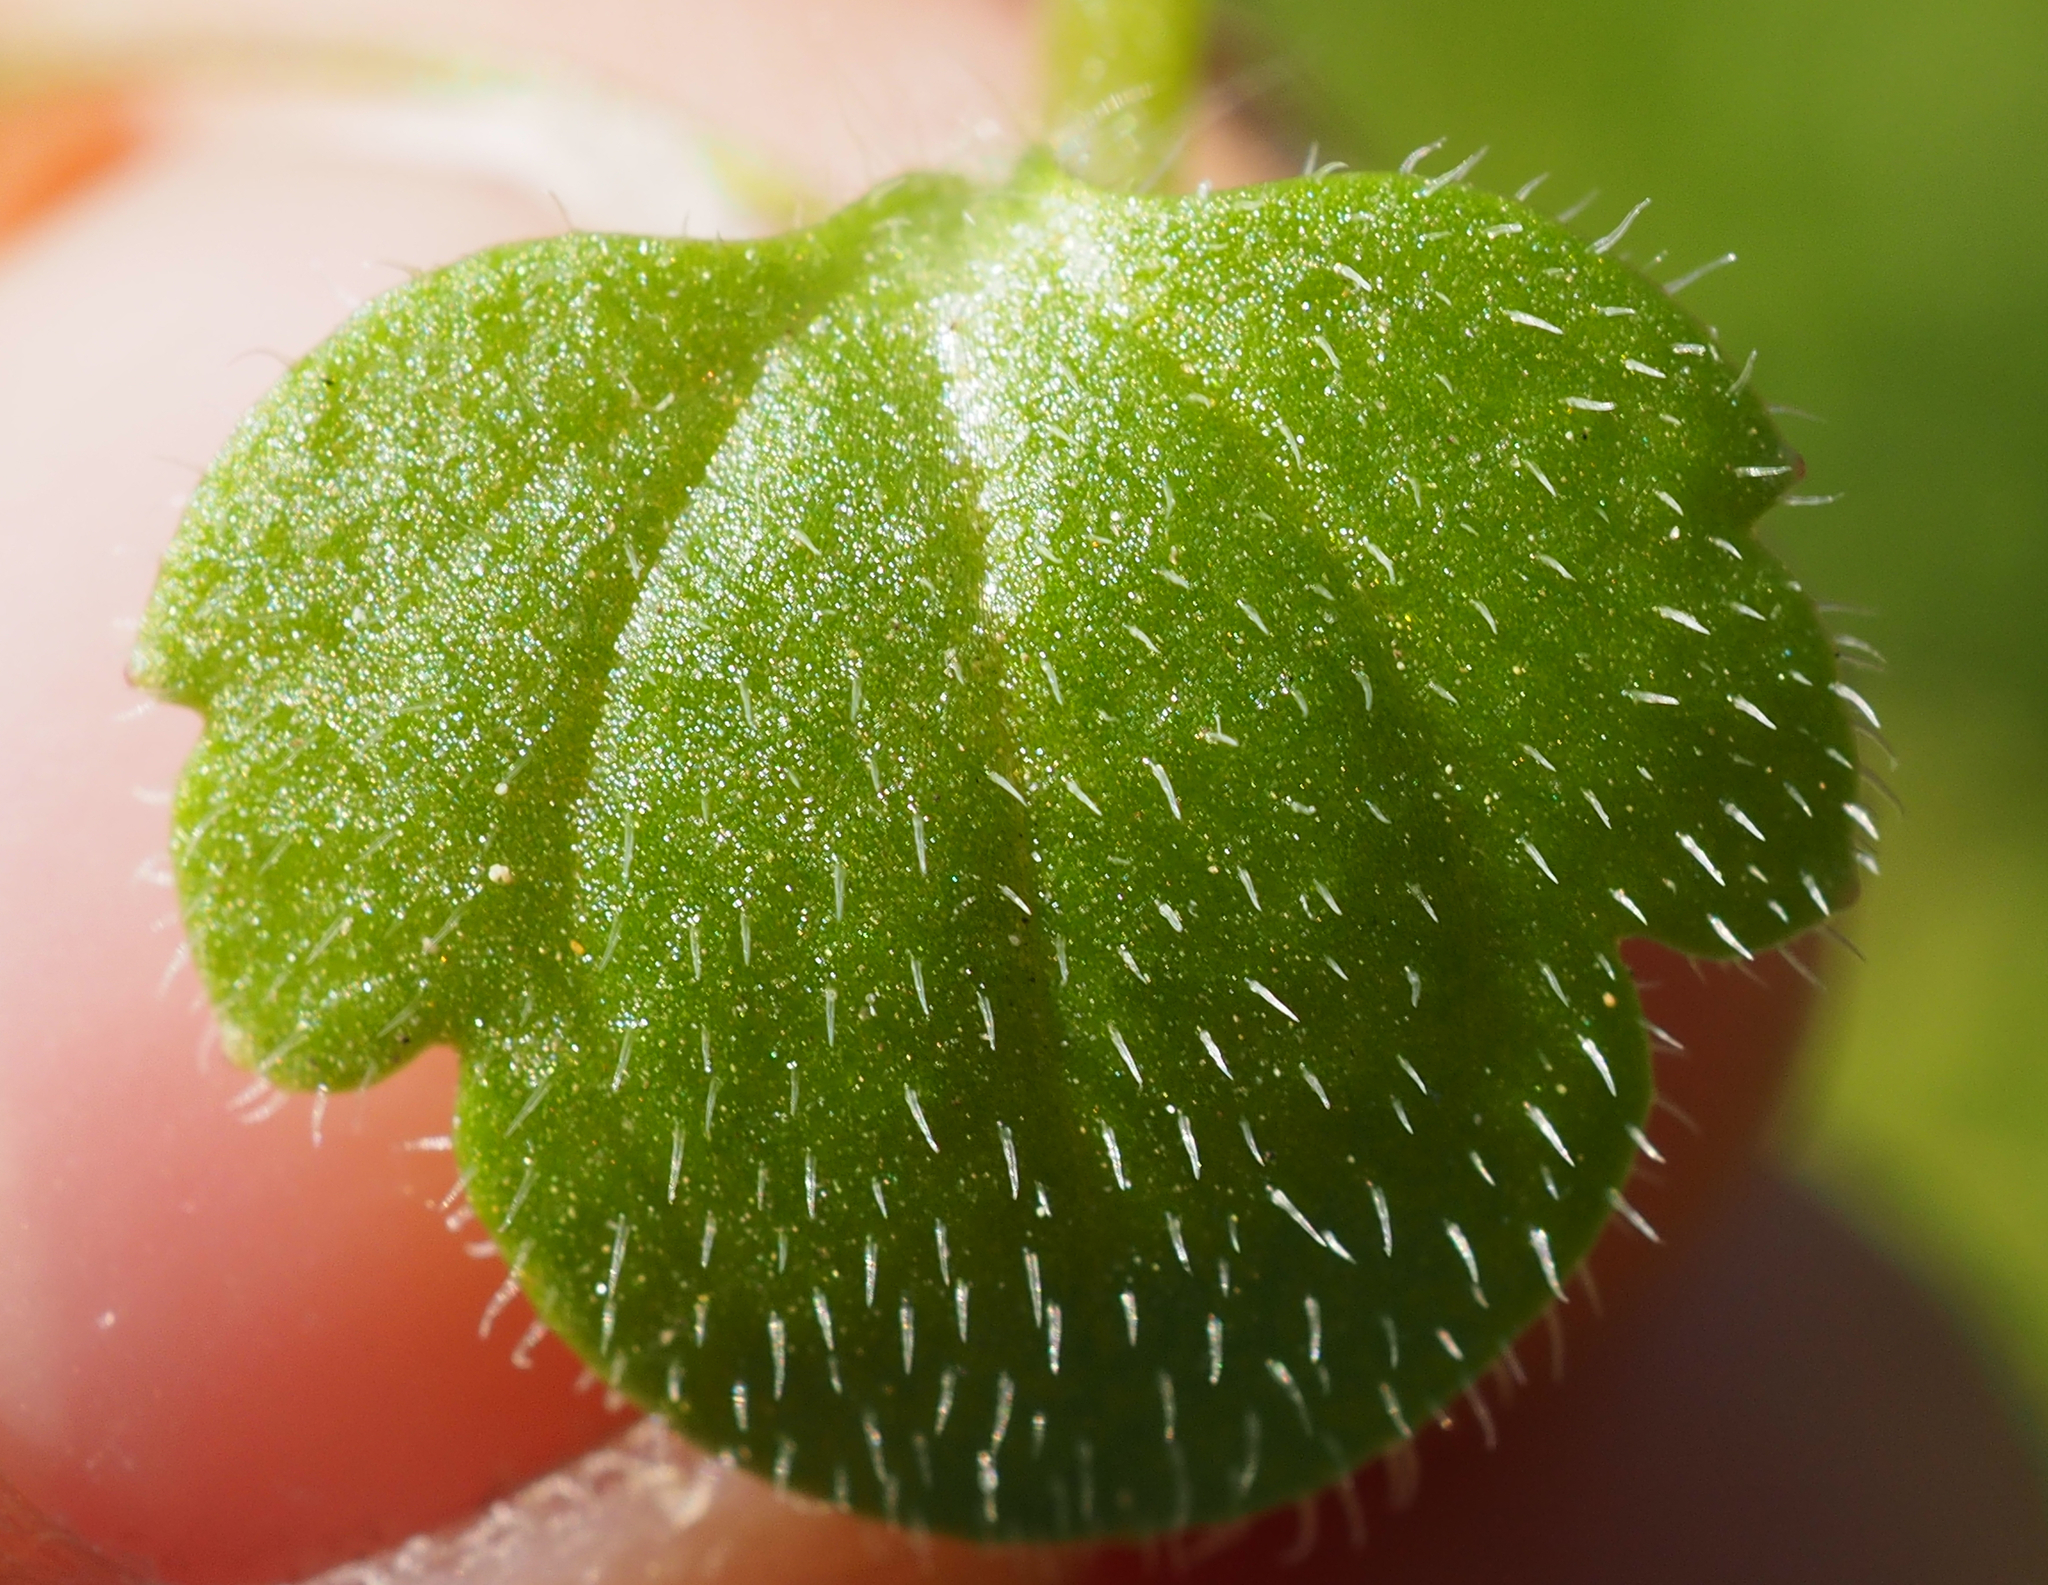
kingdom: Plantae
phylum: Tracheophyta
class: Magnoliopsida
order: Lamiales
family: Plantaginaceae
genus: Veronica
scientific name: Veronica hederifolia
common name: Ivy-leaved speedwell
